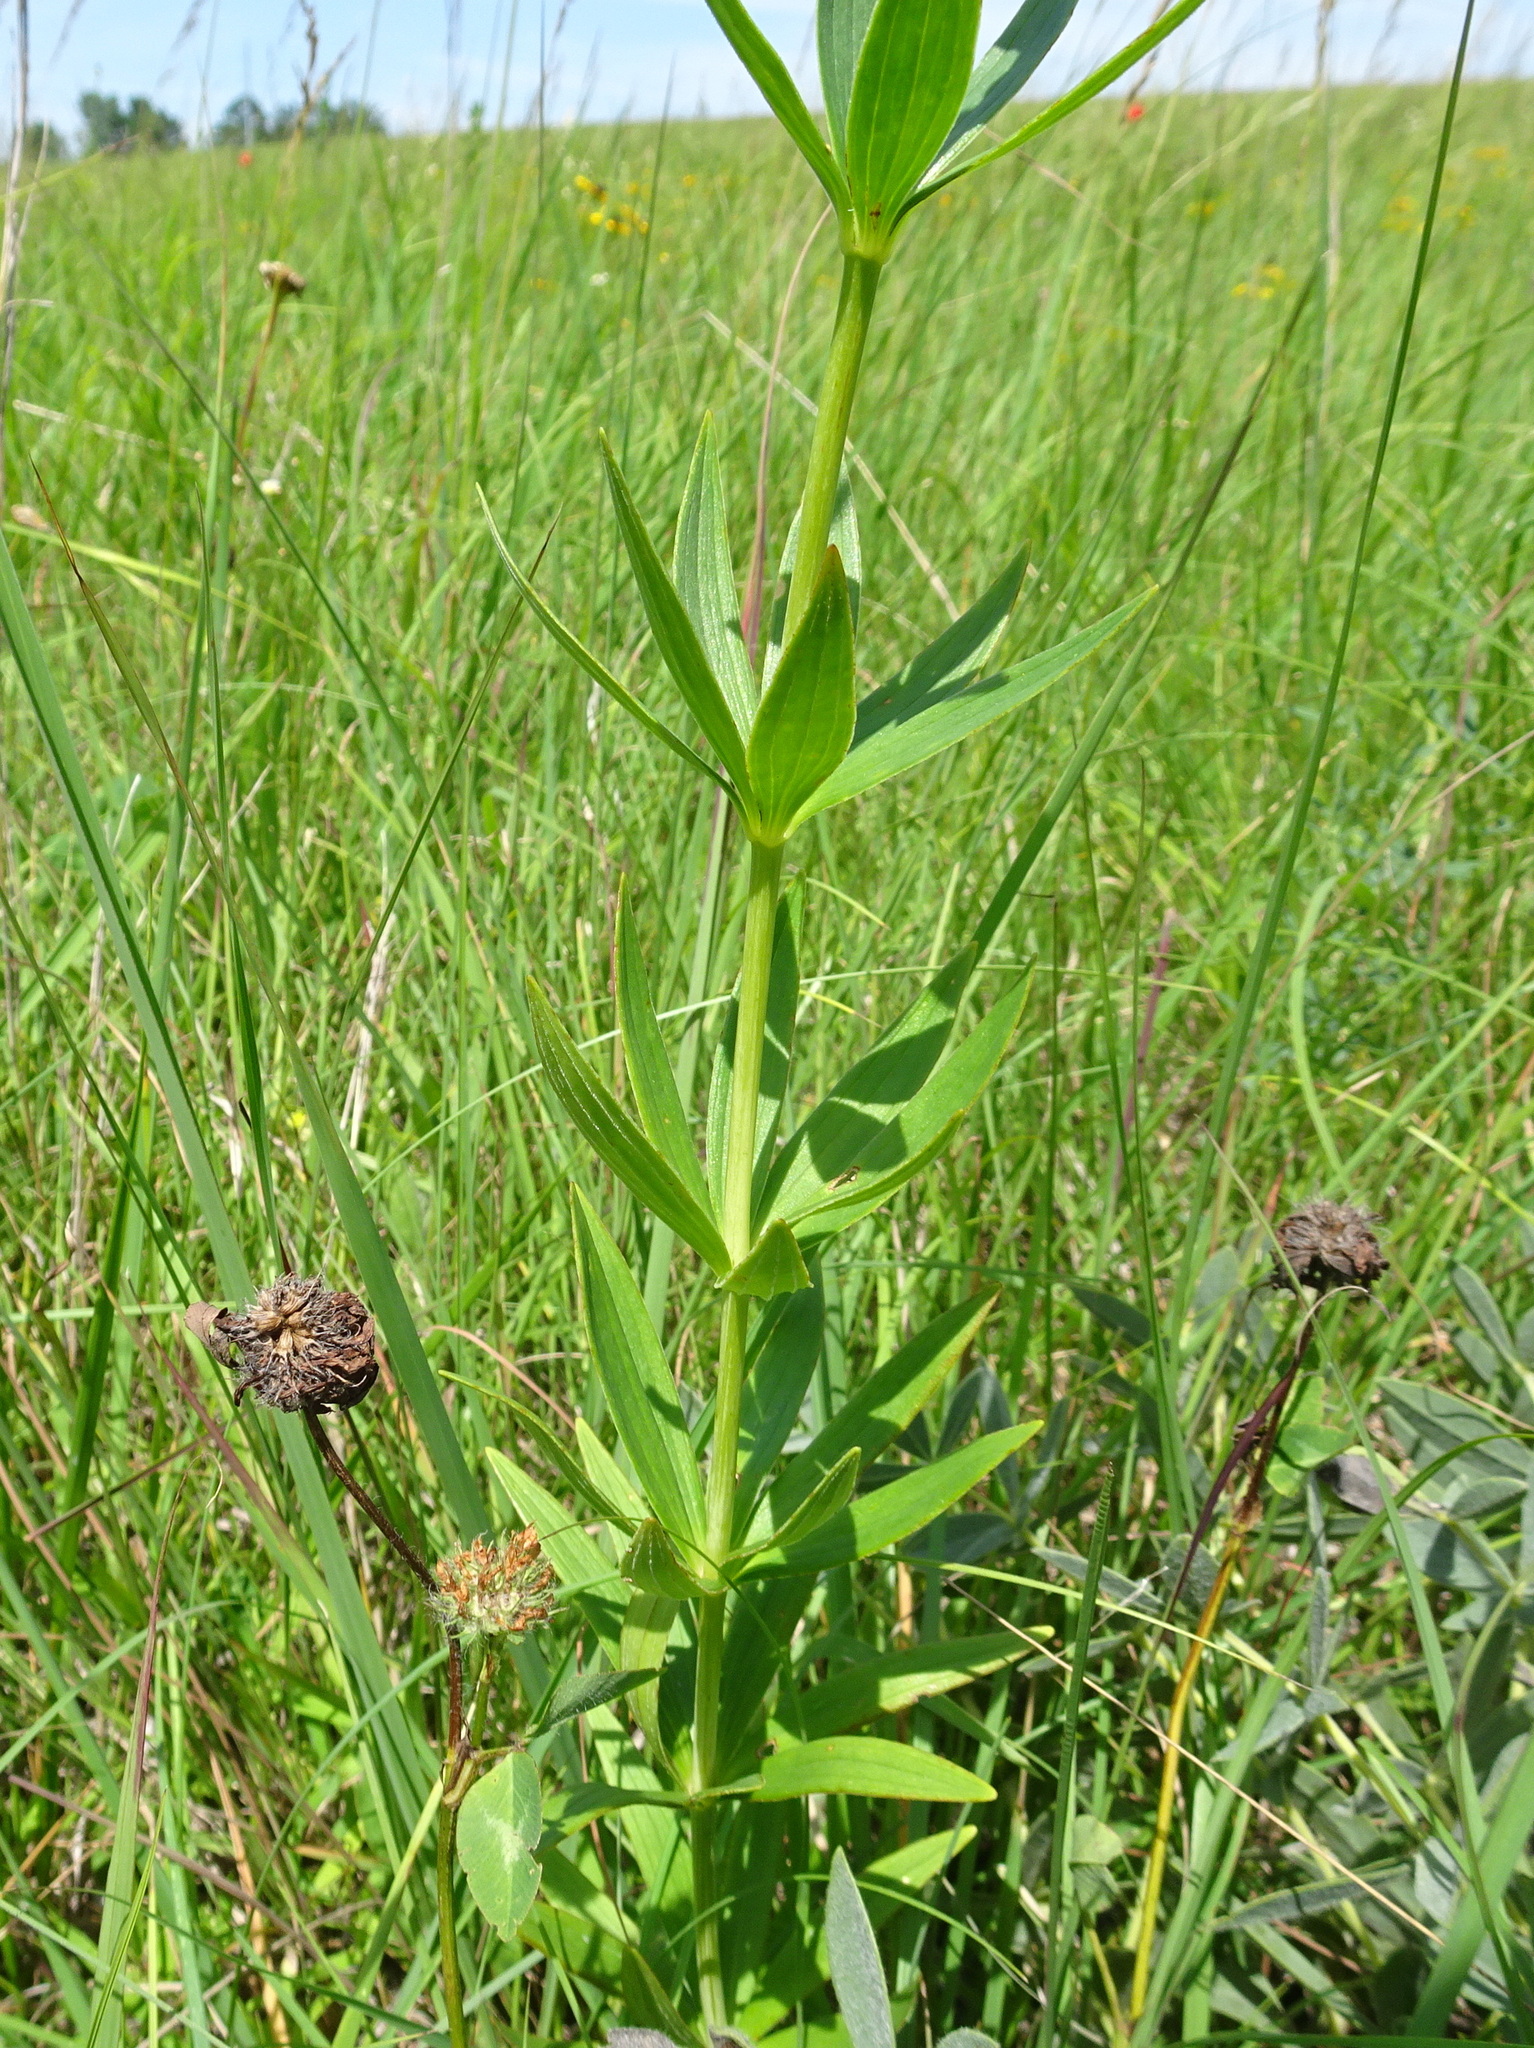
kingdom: Plantae
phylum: Tracheophyta
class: Liliopsida
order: Liliales
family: Liliaceae
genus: Lilium
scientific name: Lilium michiganense
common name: Michigan lily
